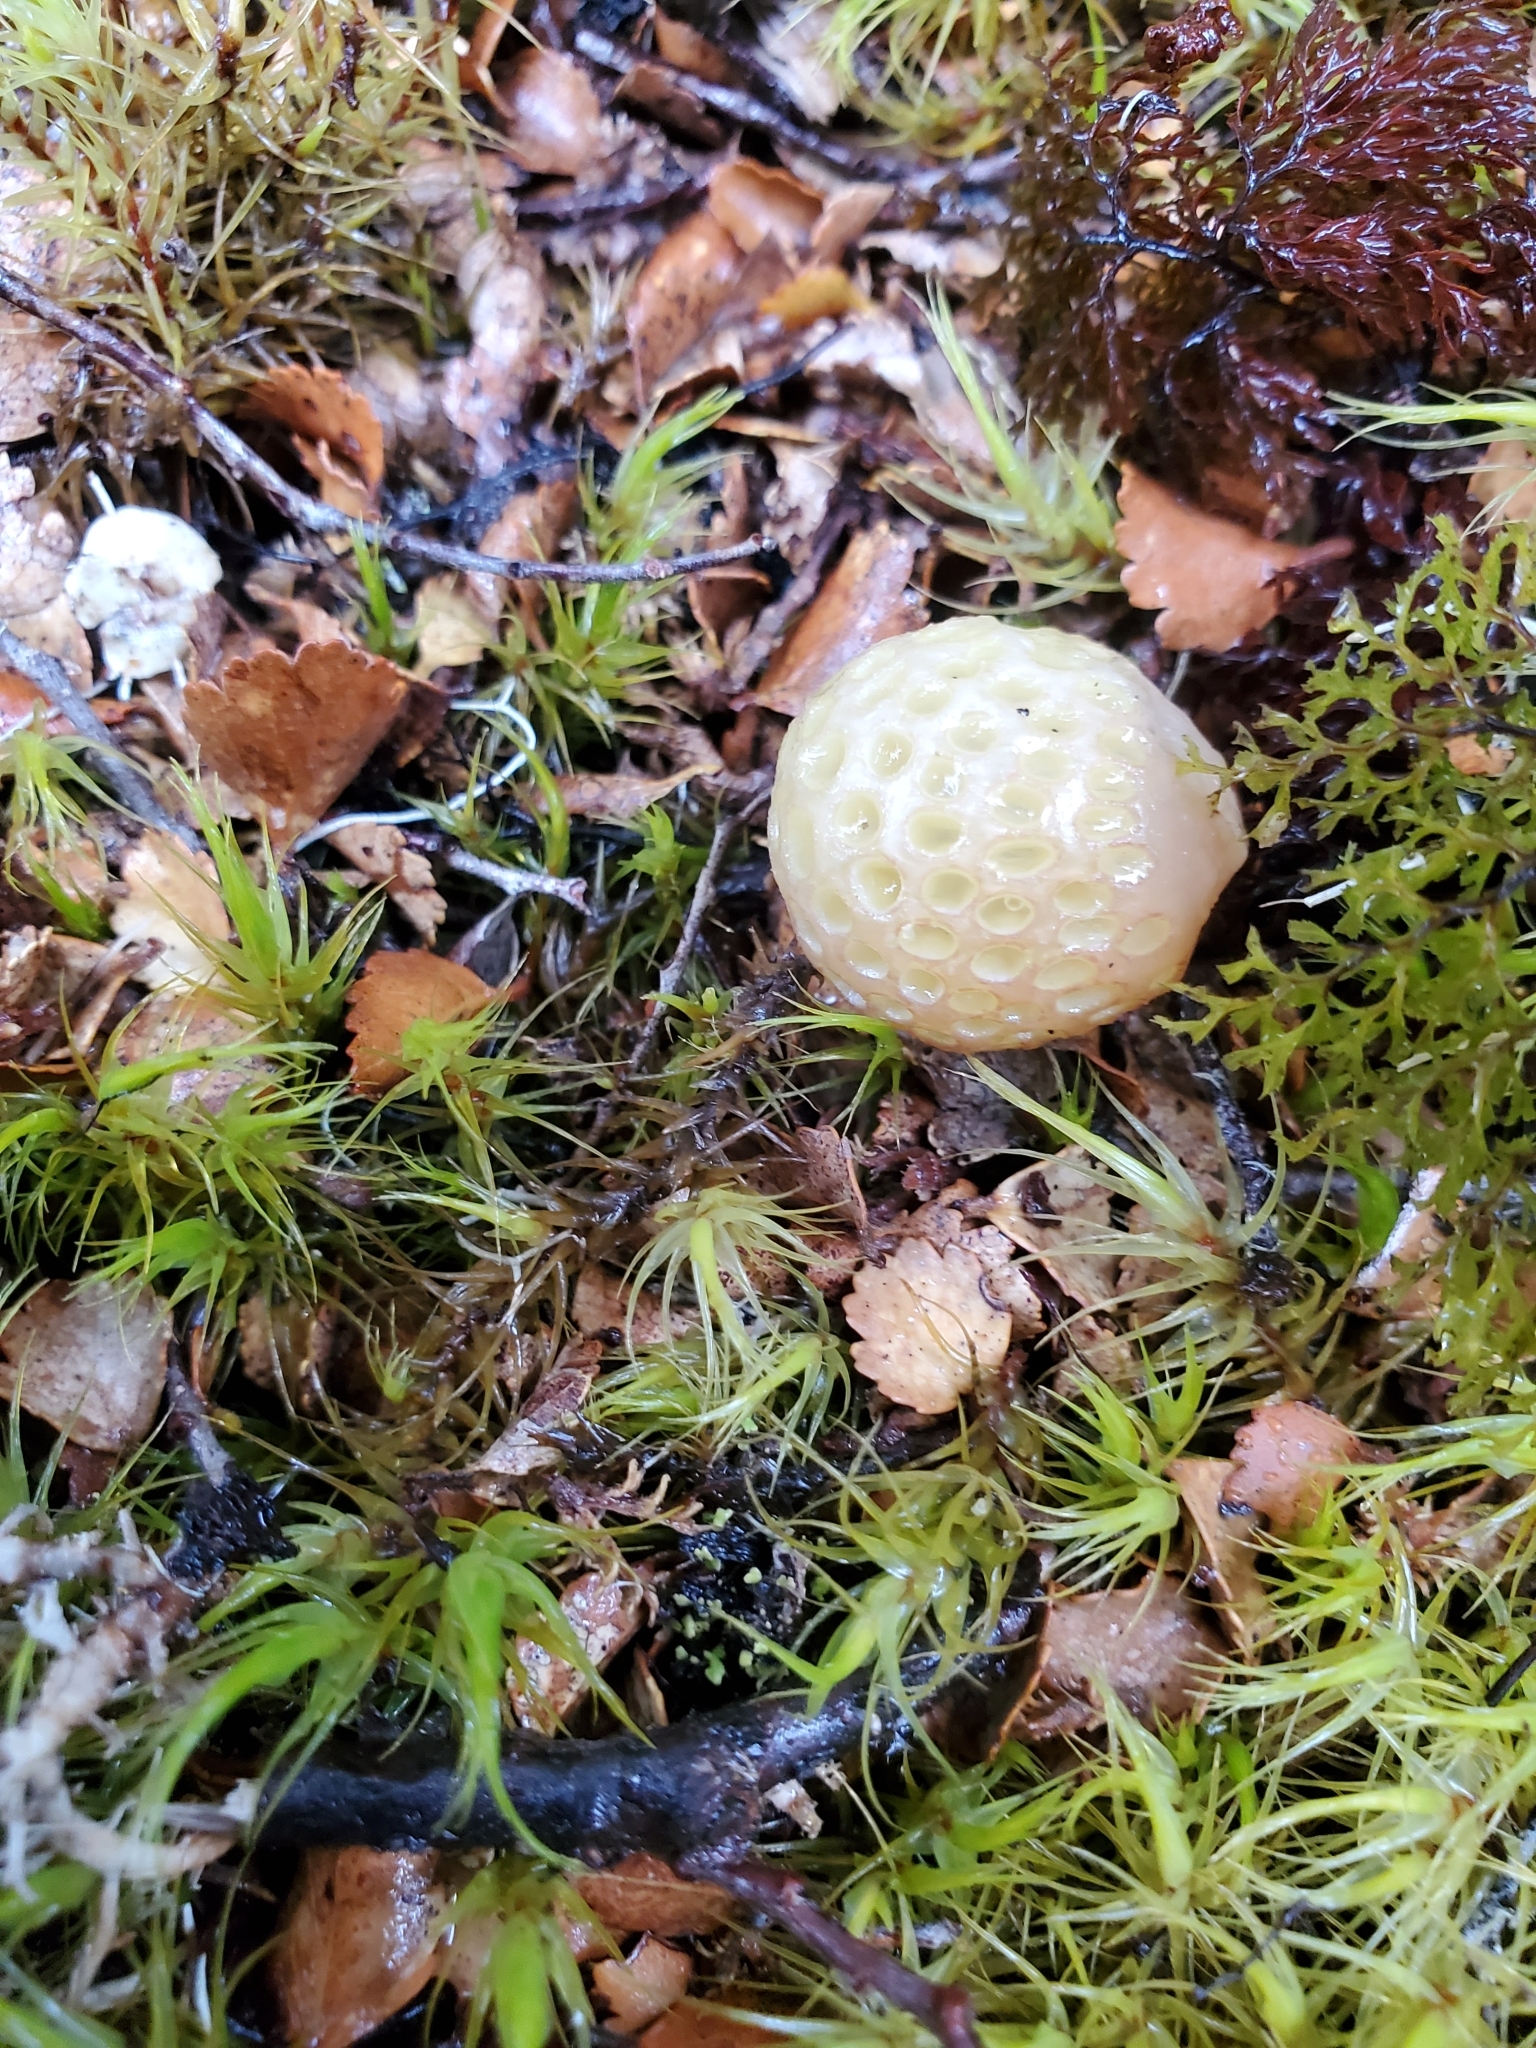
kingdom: Fungi
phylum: Ascomycota
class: Leotiomycetes
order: Cyttariales
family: Cyttariaceae
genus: Cyttaria
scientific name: Cyttaria gunnii
